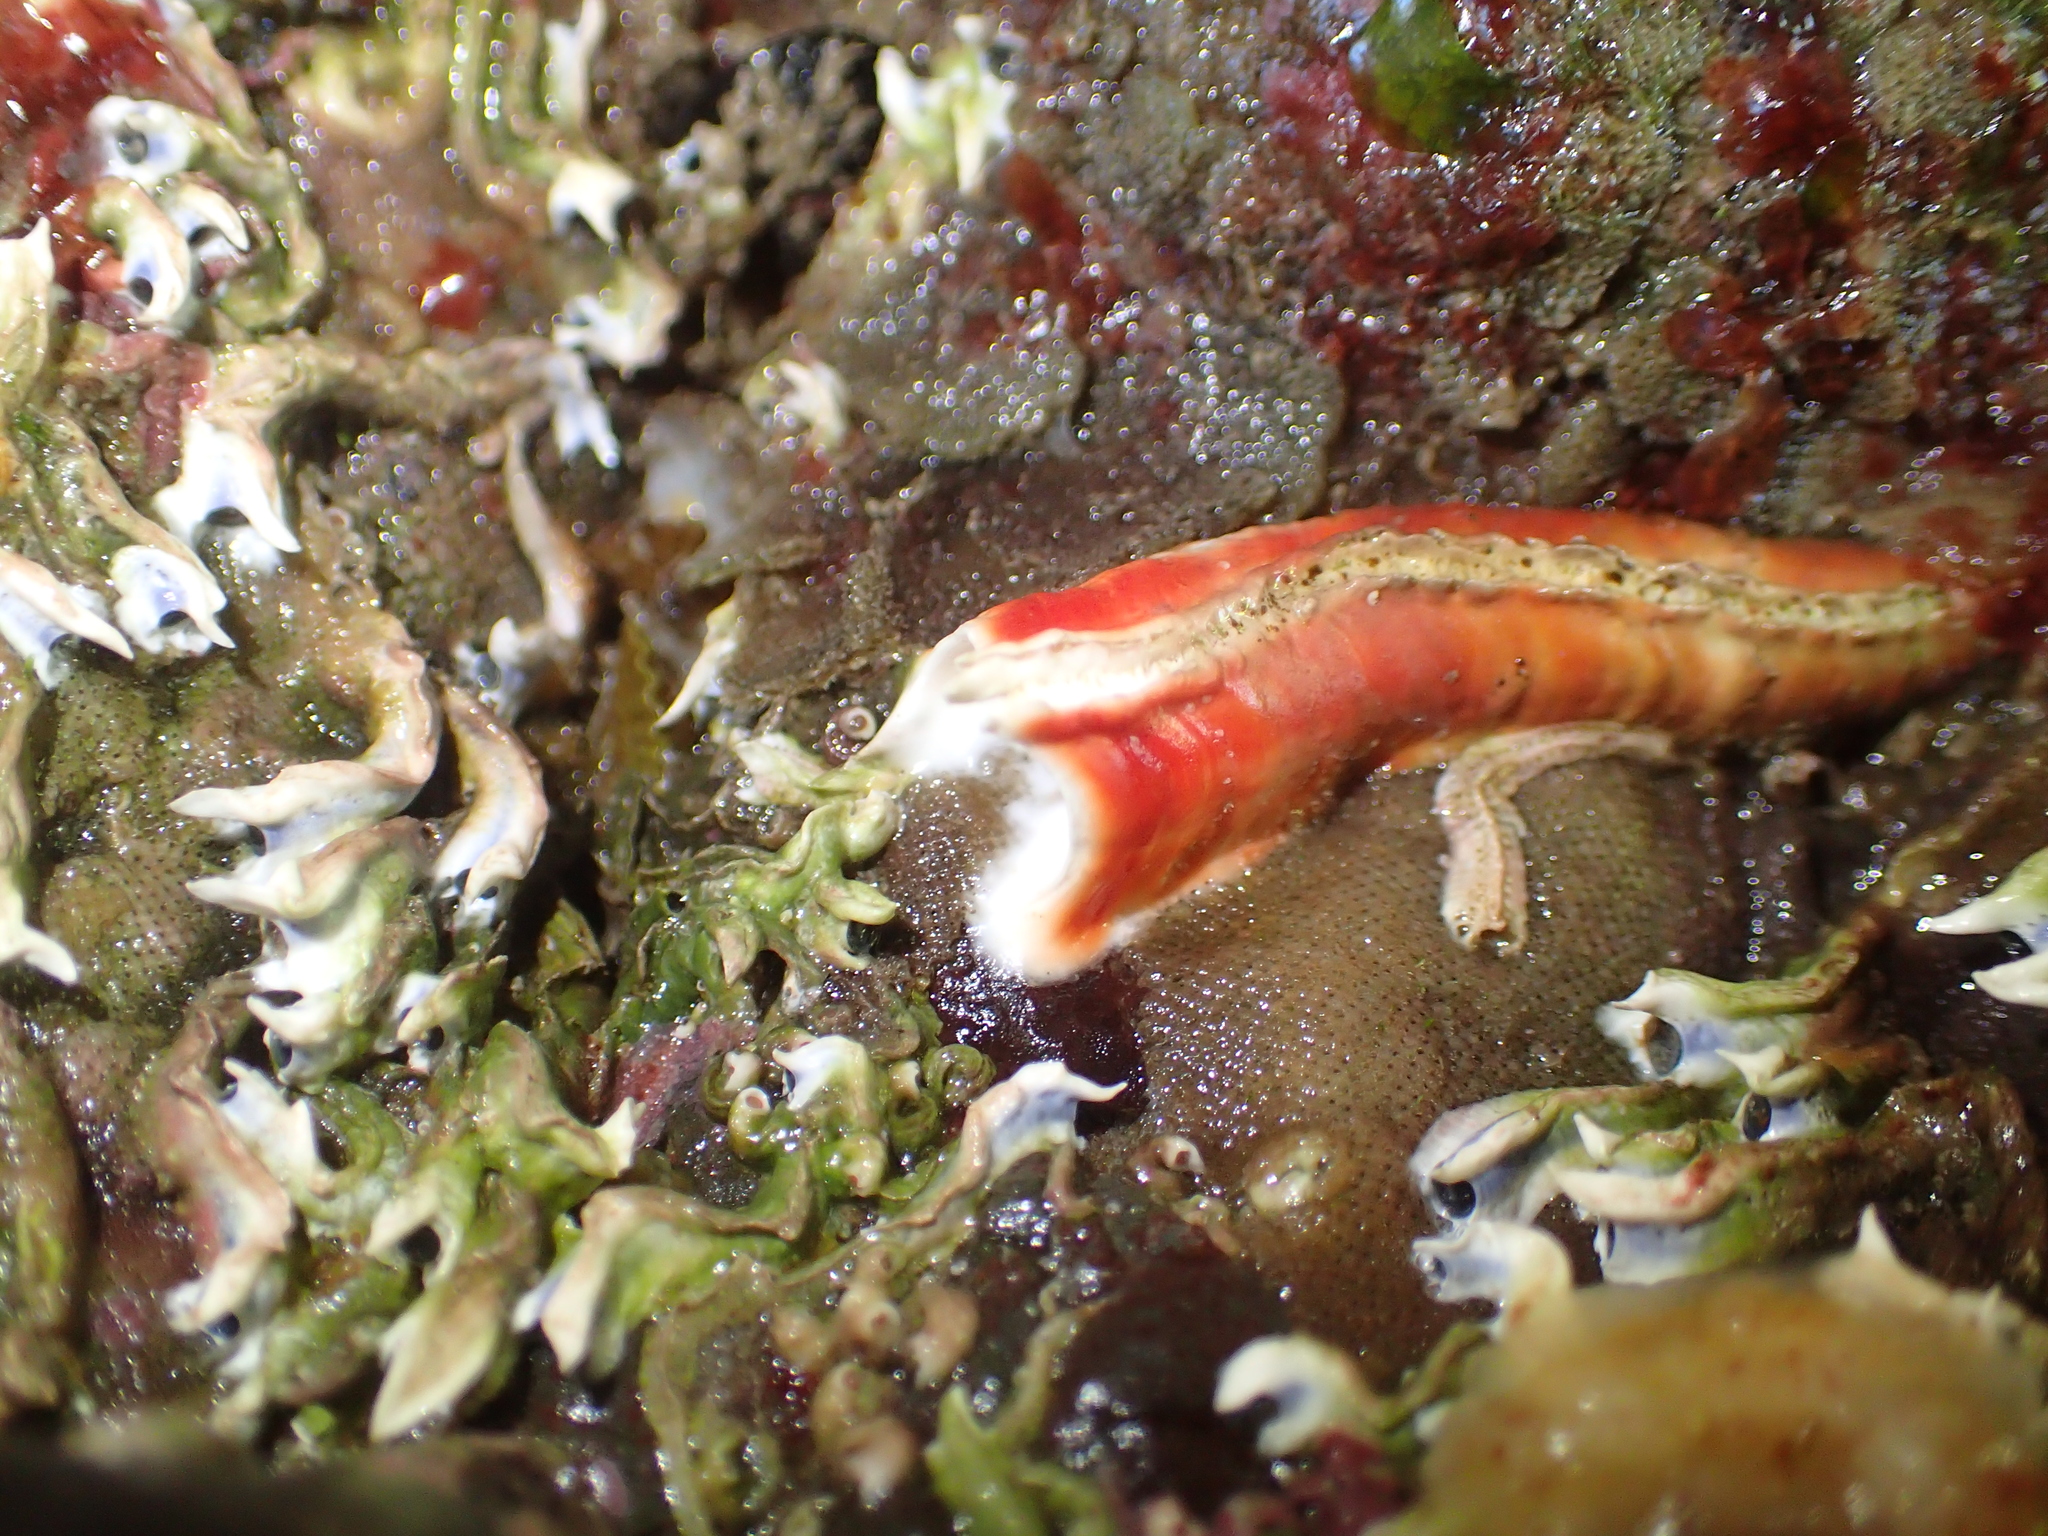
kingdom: Animalia
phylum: Annelida
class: Polychaeta
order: Sabellida
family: Serpulidae
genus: Galeolaria
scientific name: Galeolaria hystrix
